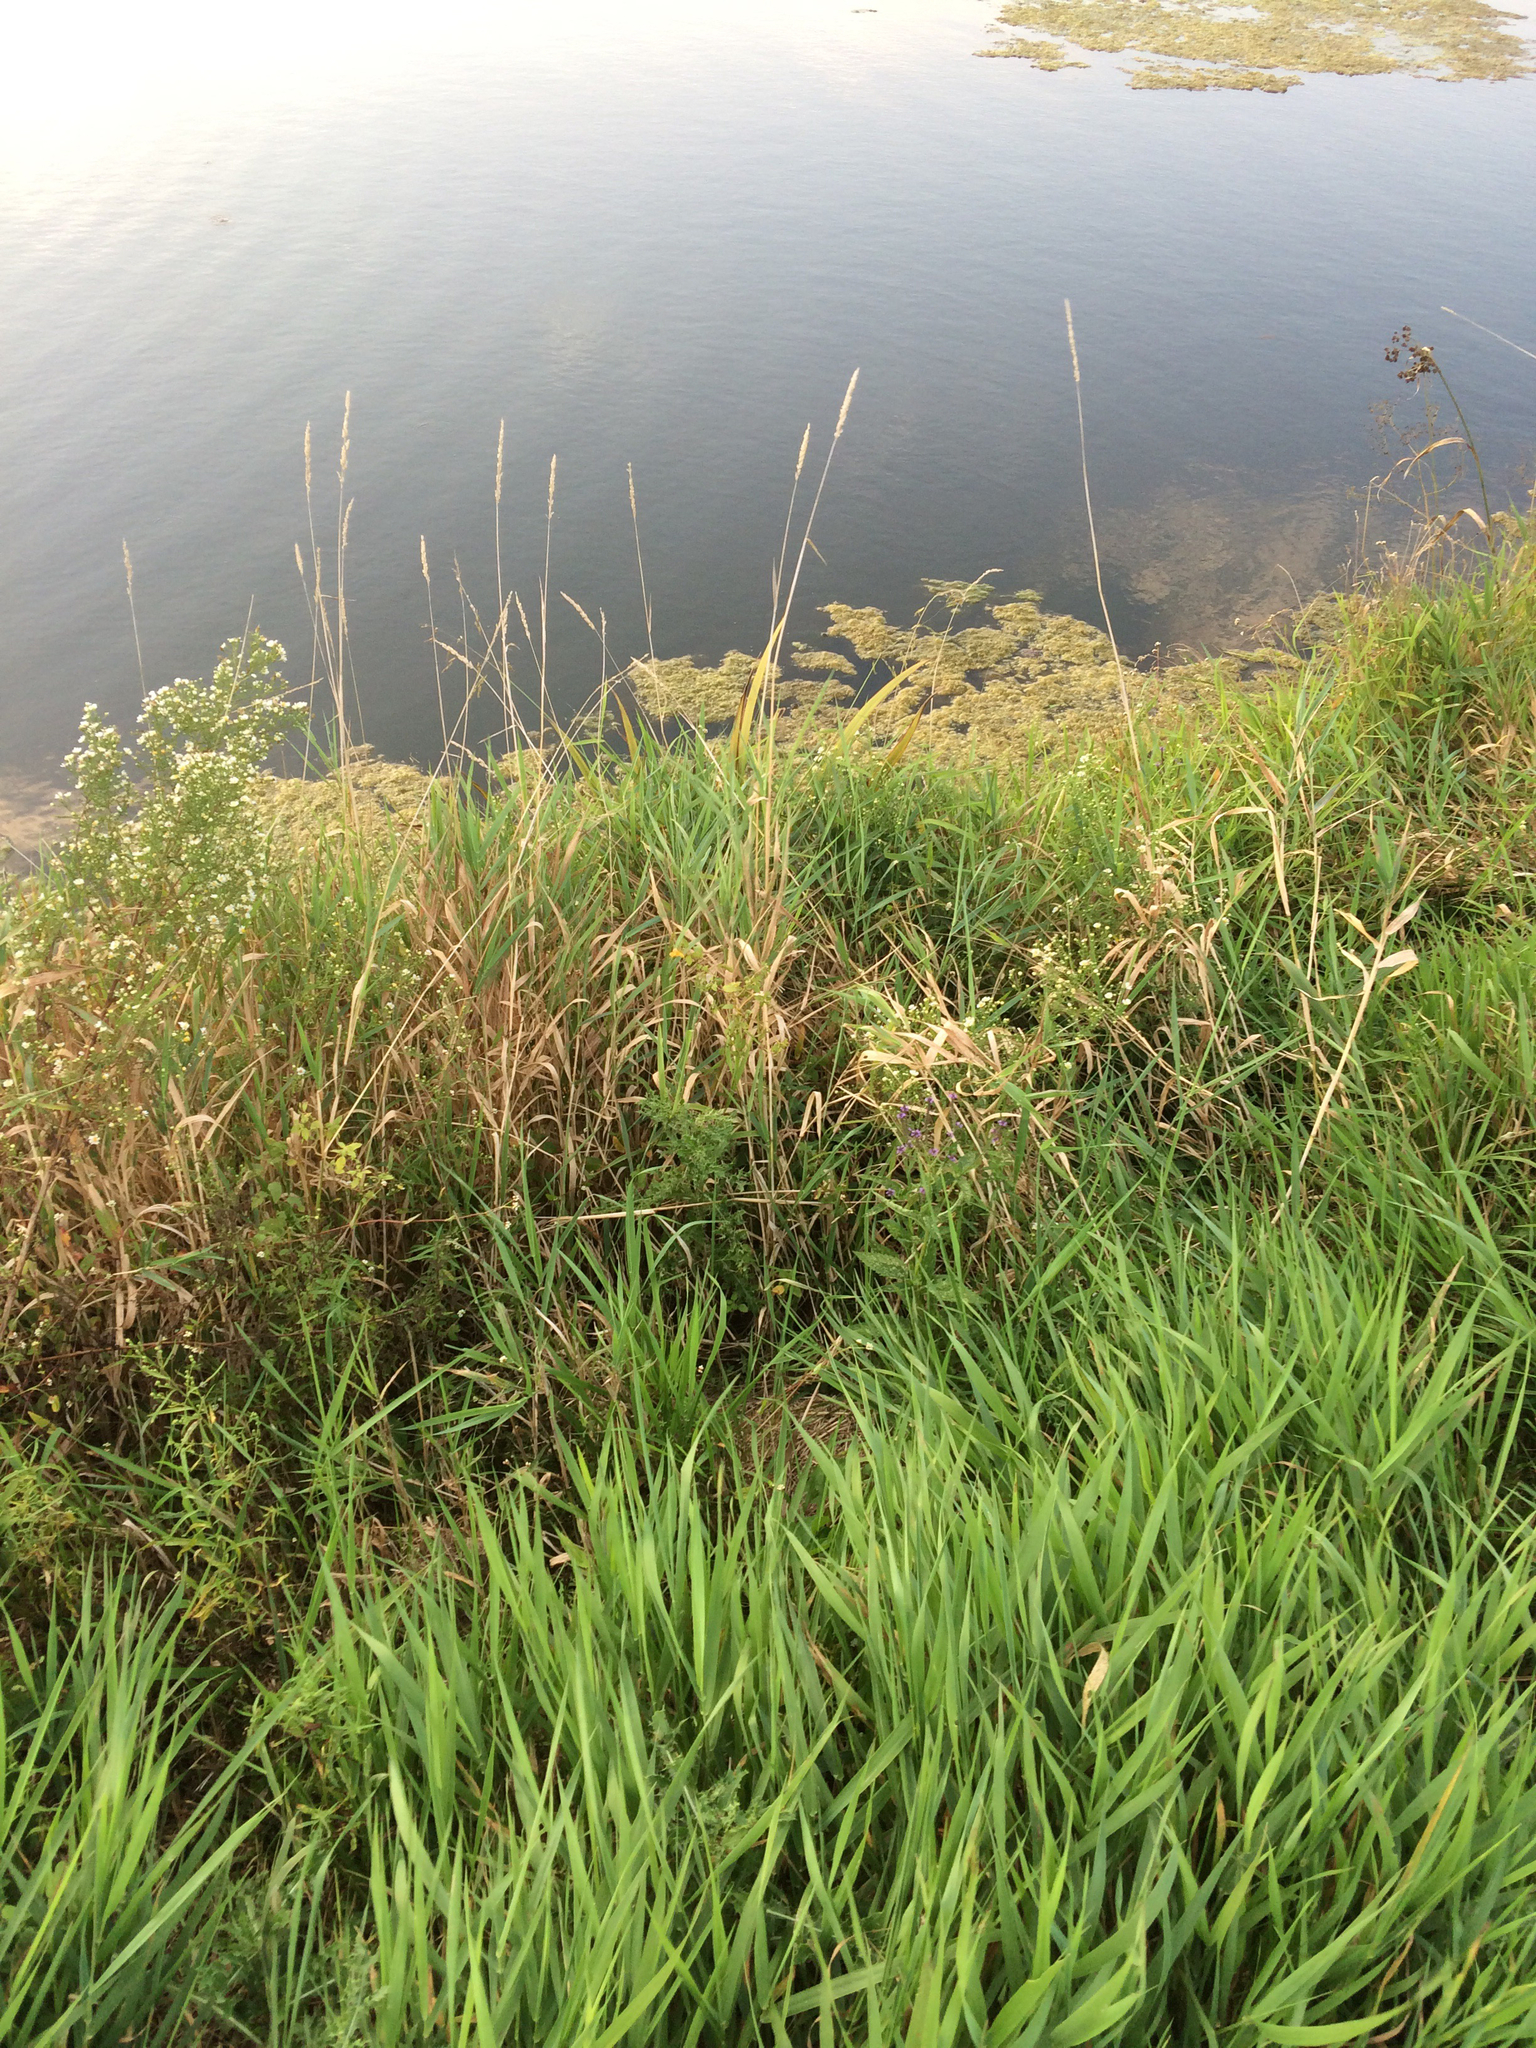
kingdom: Plantae
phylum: Tracheophyta
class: Liliopsida
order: Poales
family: Poaceae
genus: Phalaris
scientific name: Phalaris arundinacea
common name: Reed canary-grass
